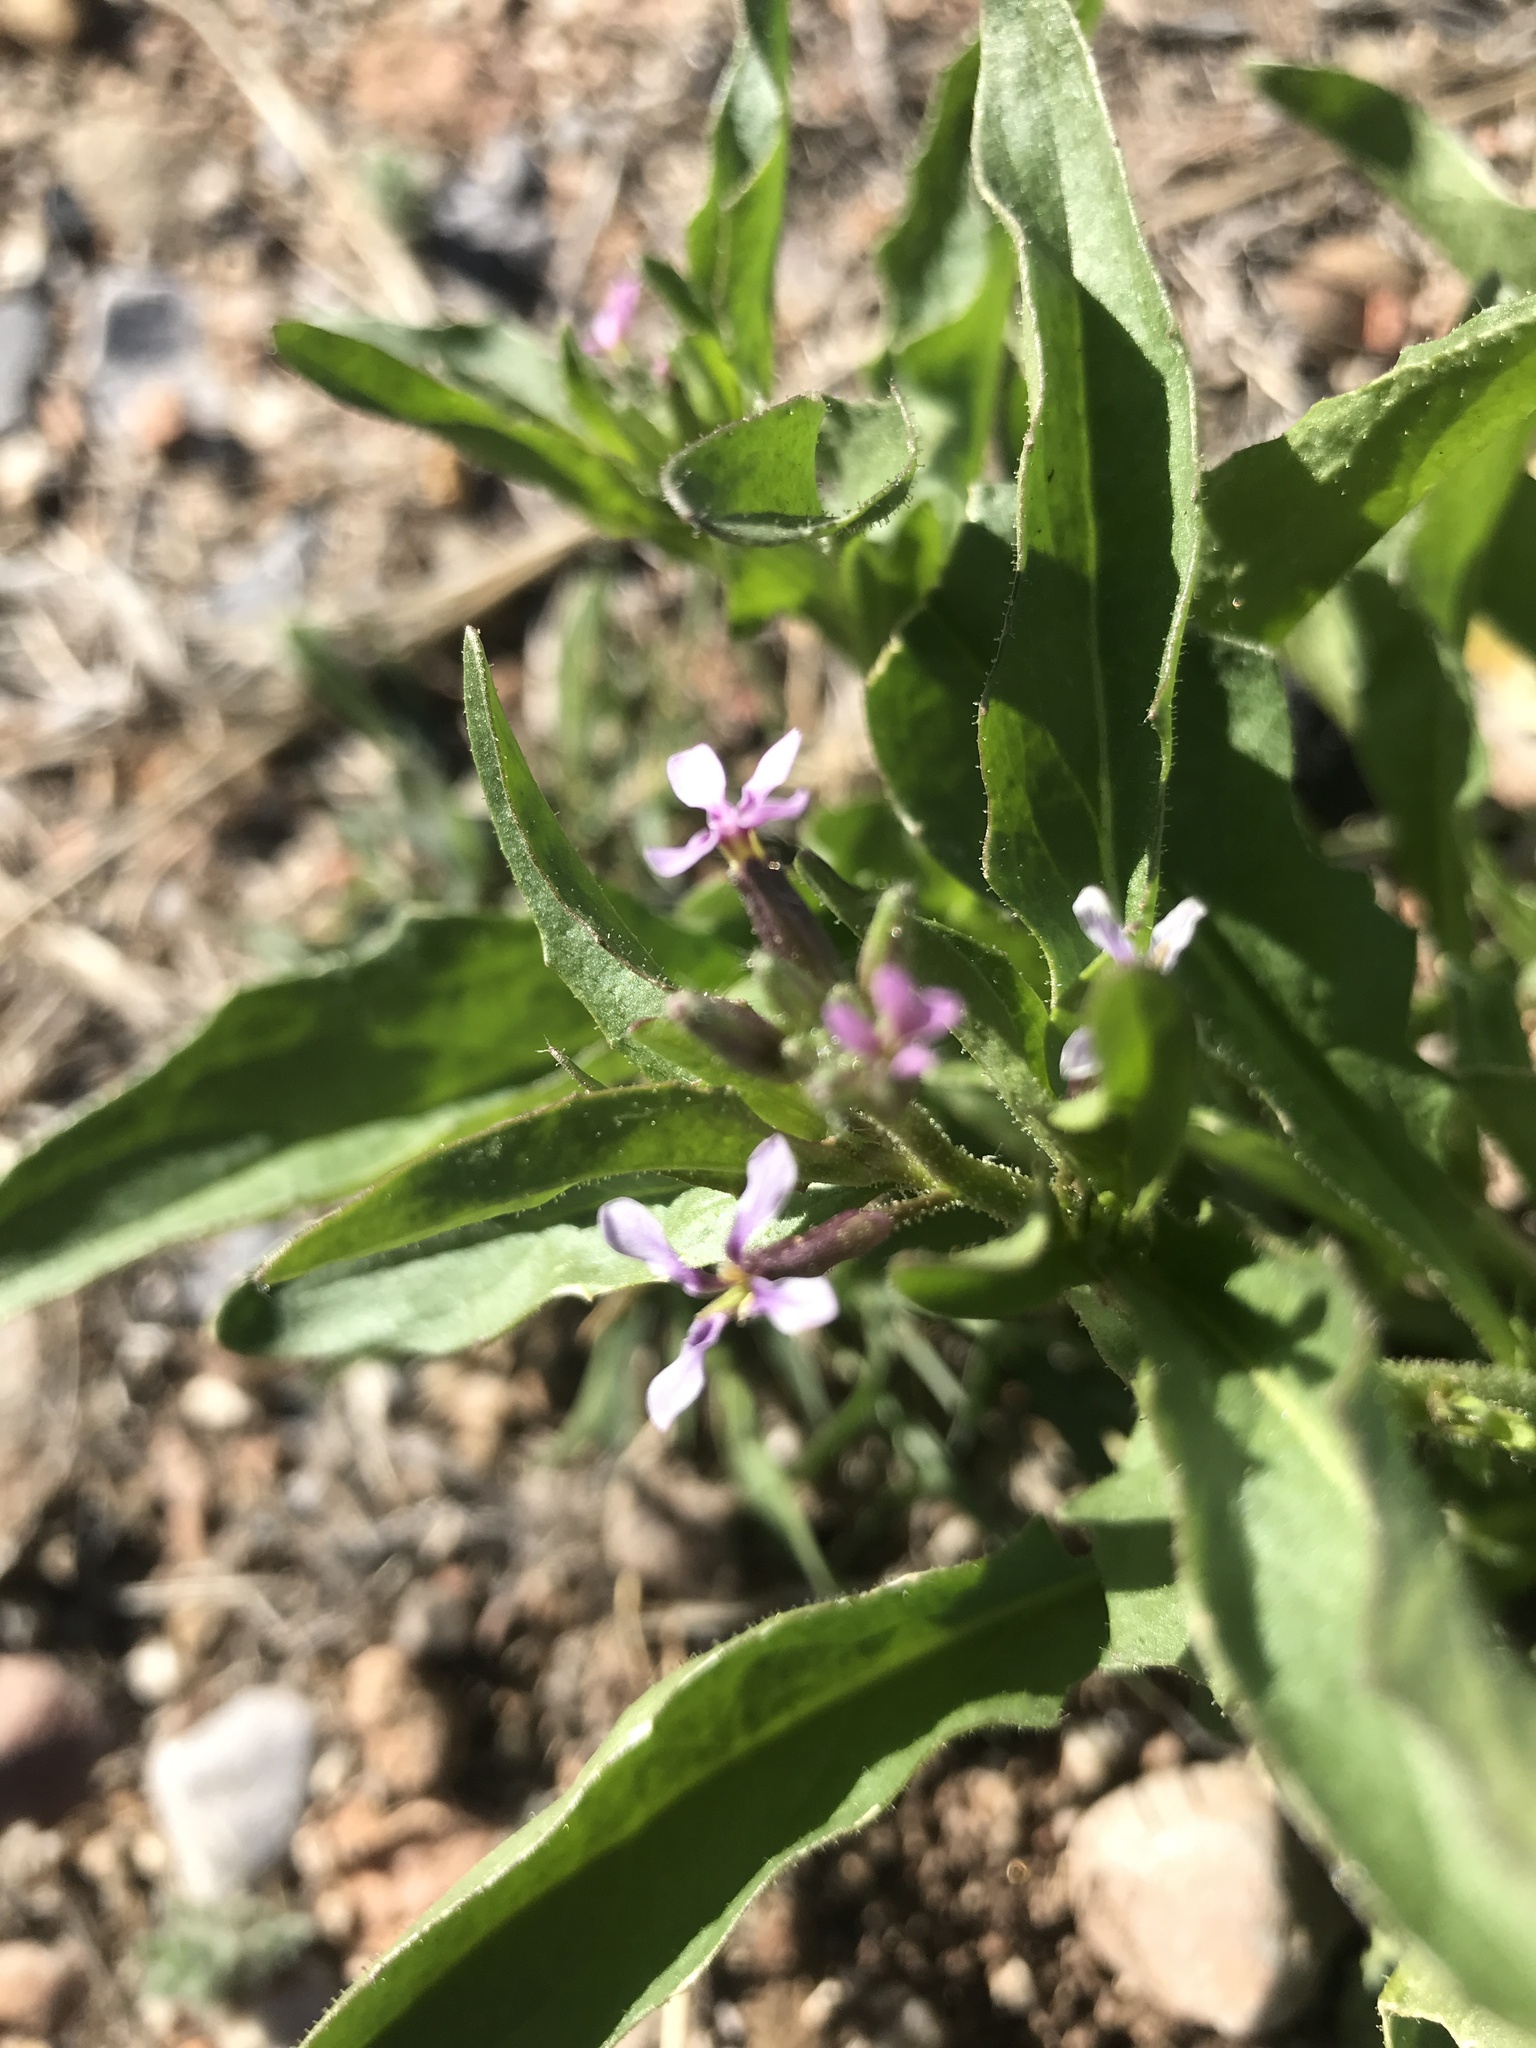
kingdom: Plantae
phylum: Tracheophyta
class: Magnoliopsida
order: Brassicales
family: Brassicaceae
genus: Chorispora
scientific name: Chorispora tenella
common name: Crossflower
